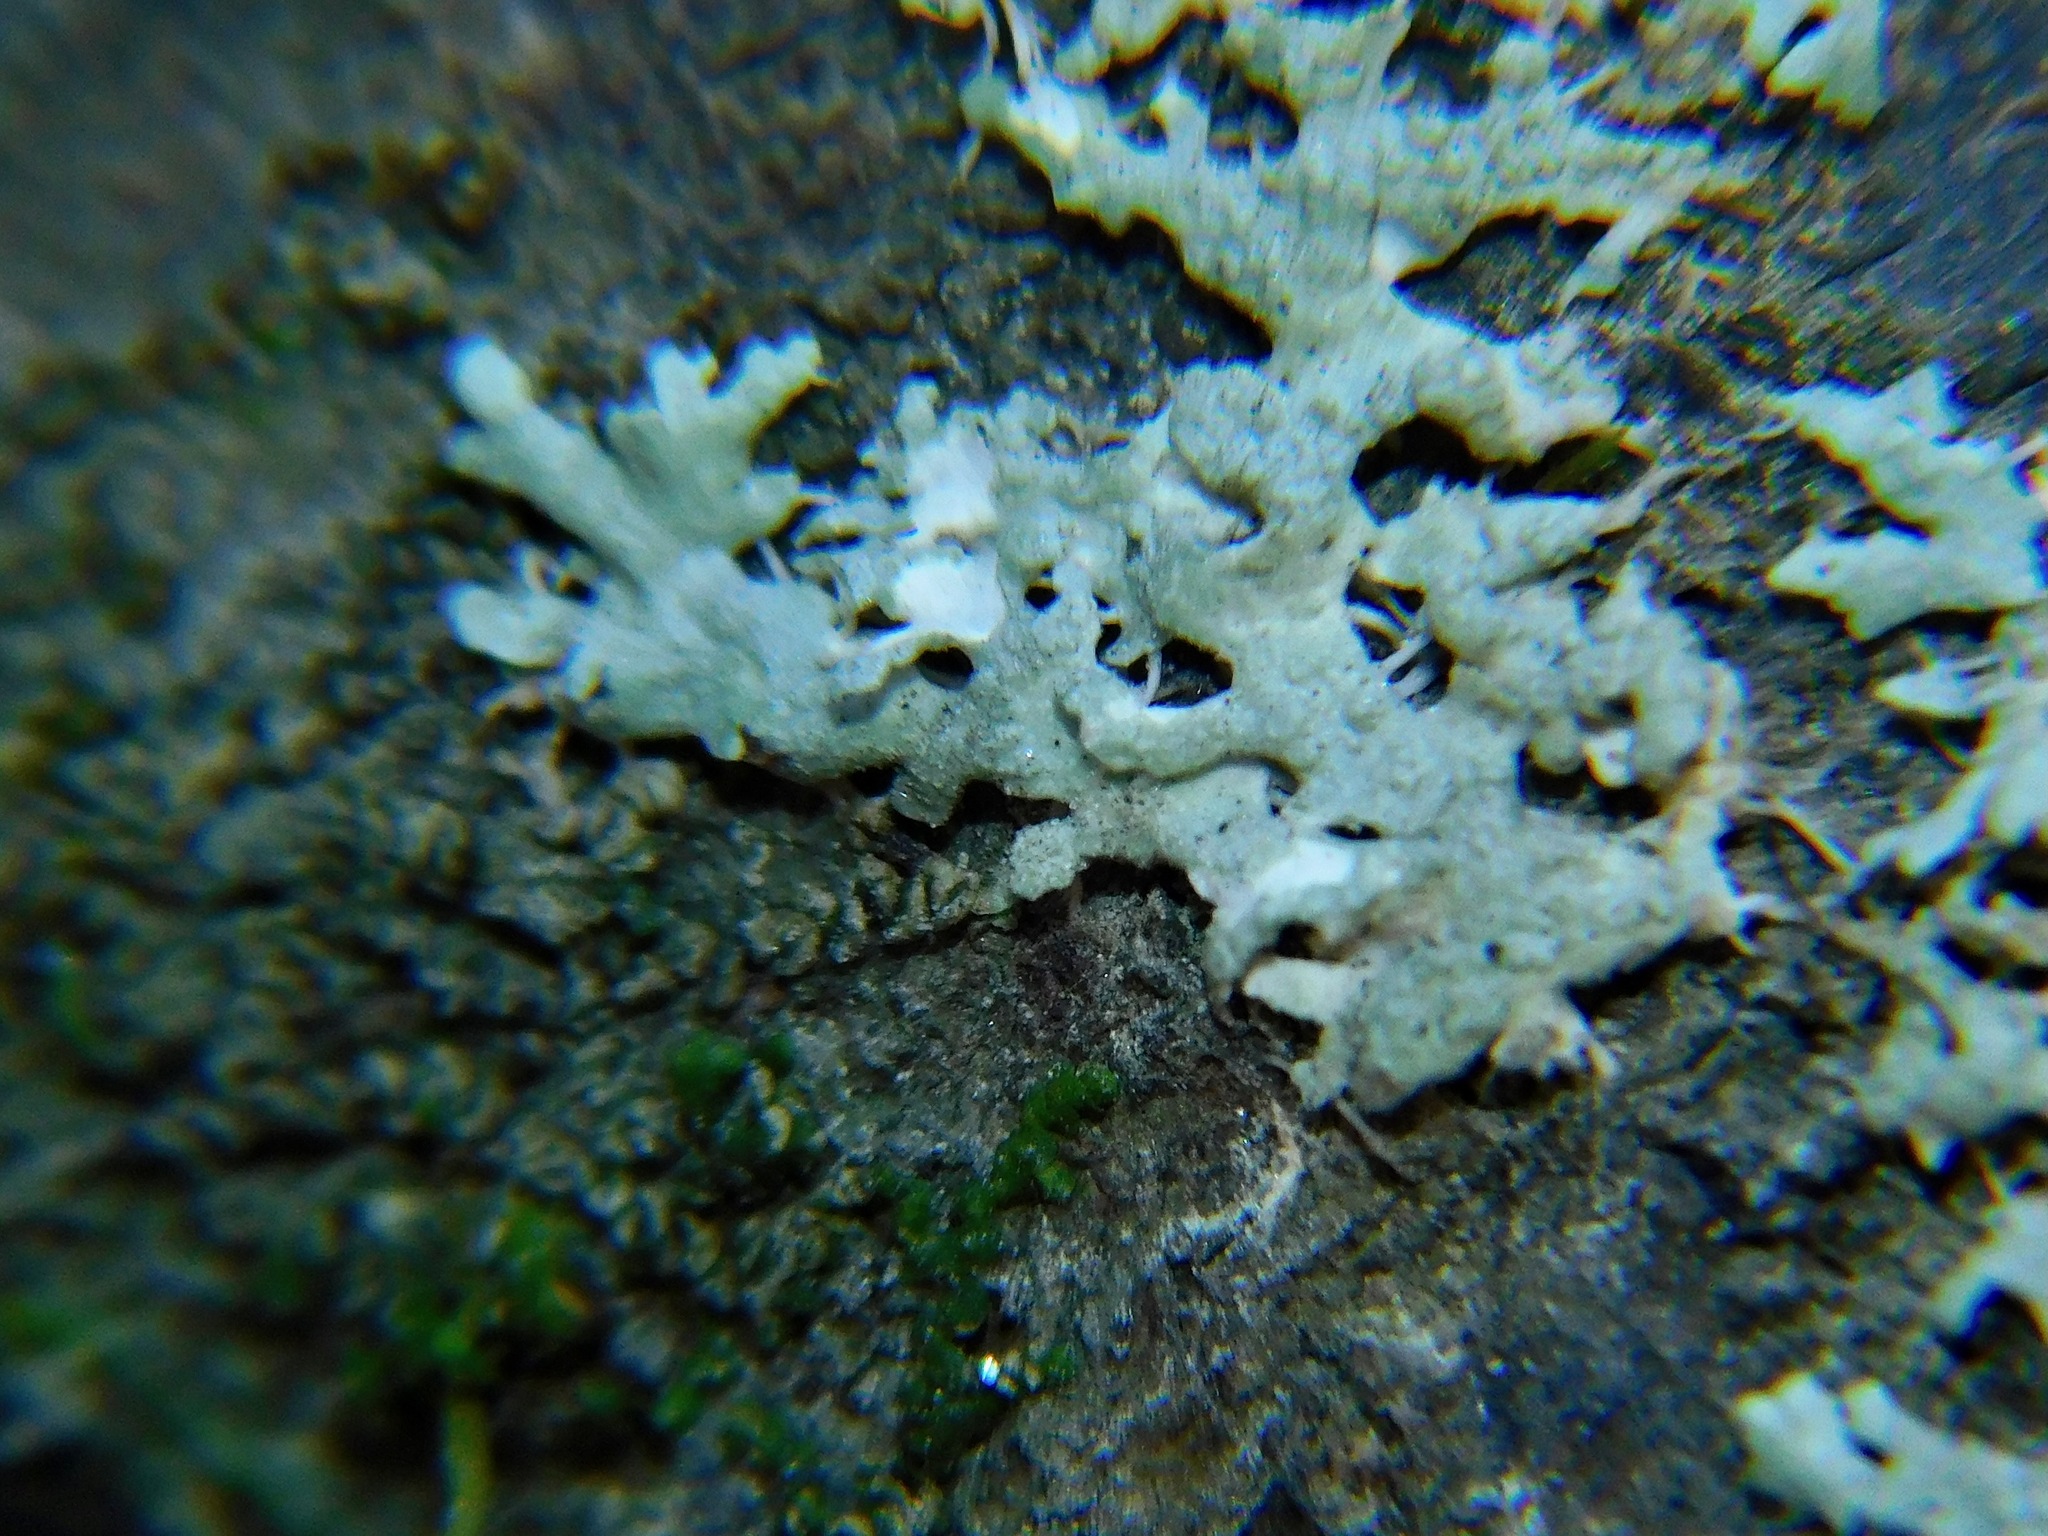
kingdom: Fungi
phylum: Ascomycota
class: Lecanoromycetes
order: Caliciales
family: Physciaceae
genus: Physcia
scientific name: Physcia caesia
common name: Blue-gray rosette lichen
